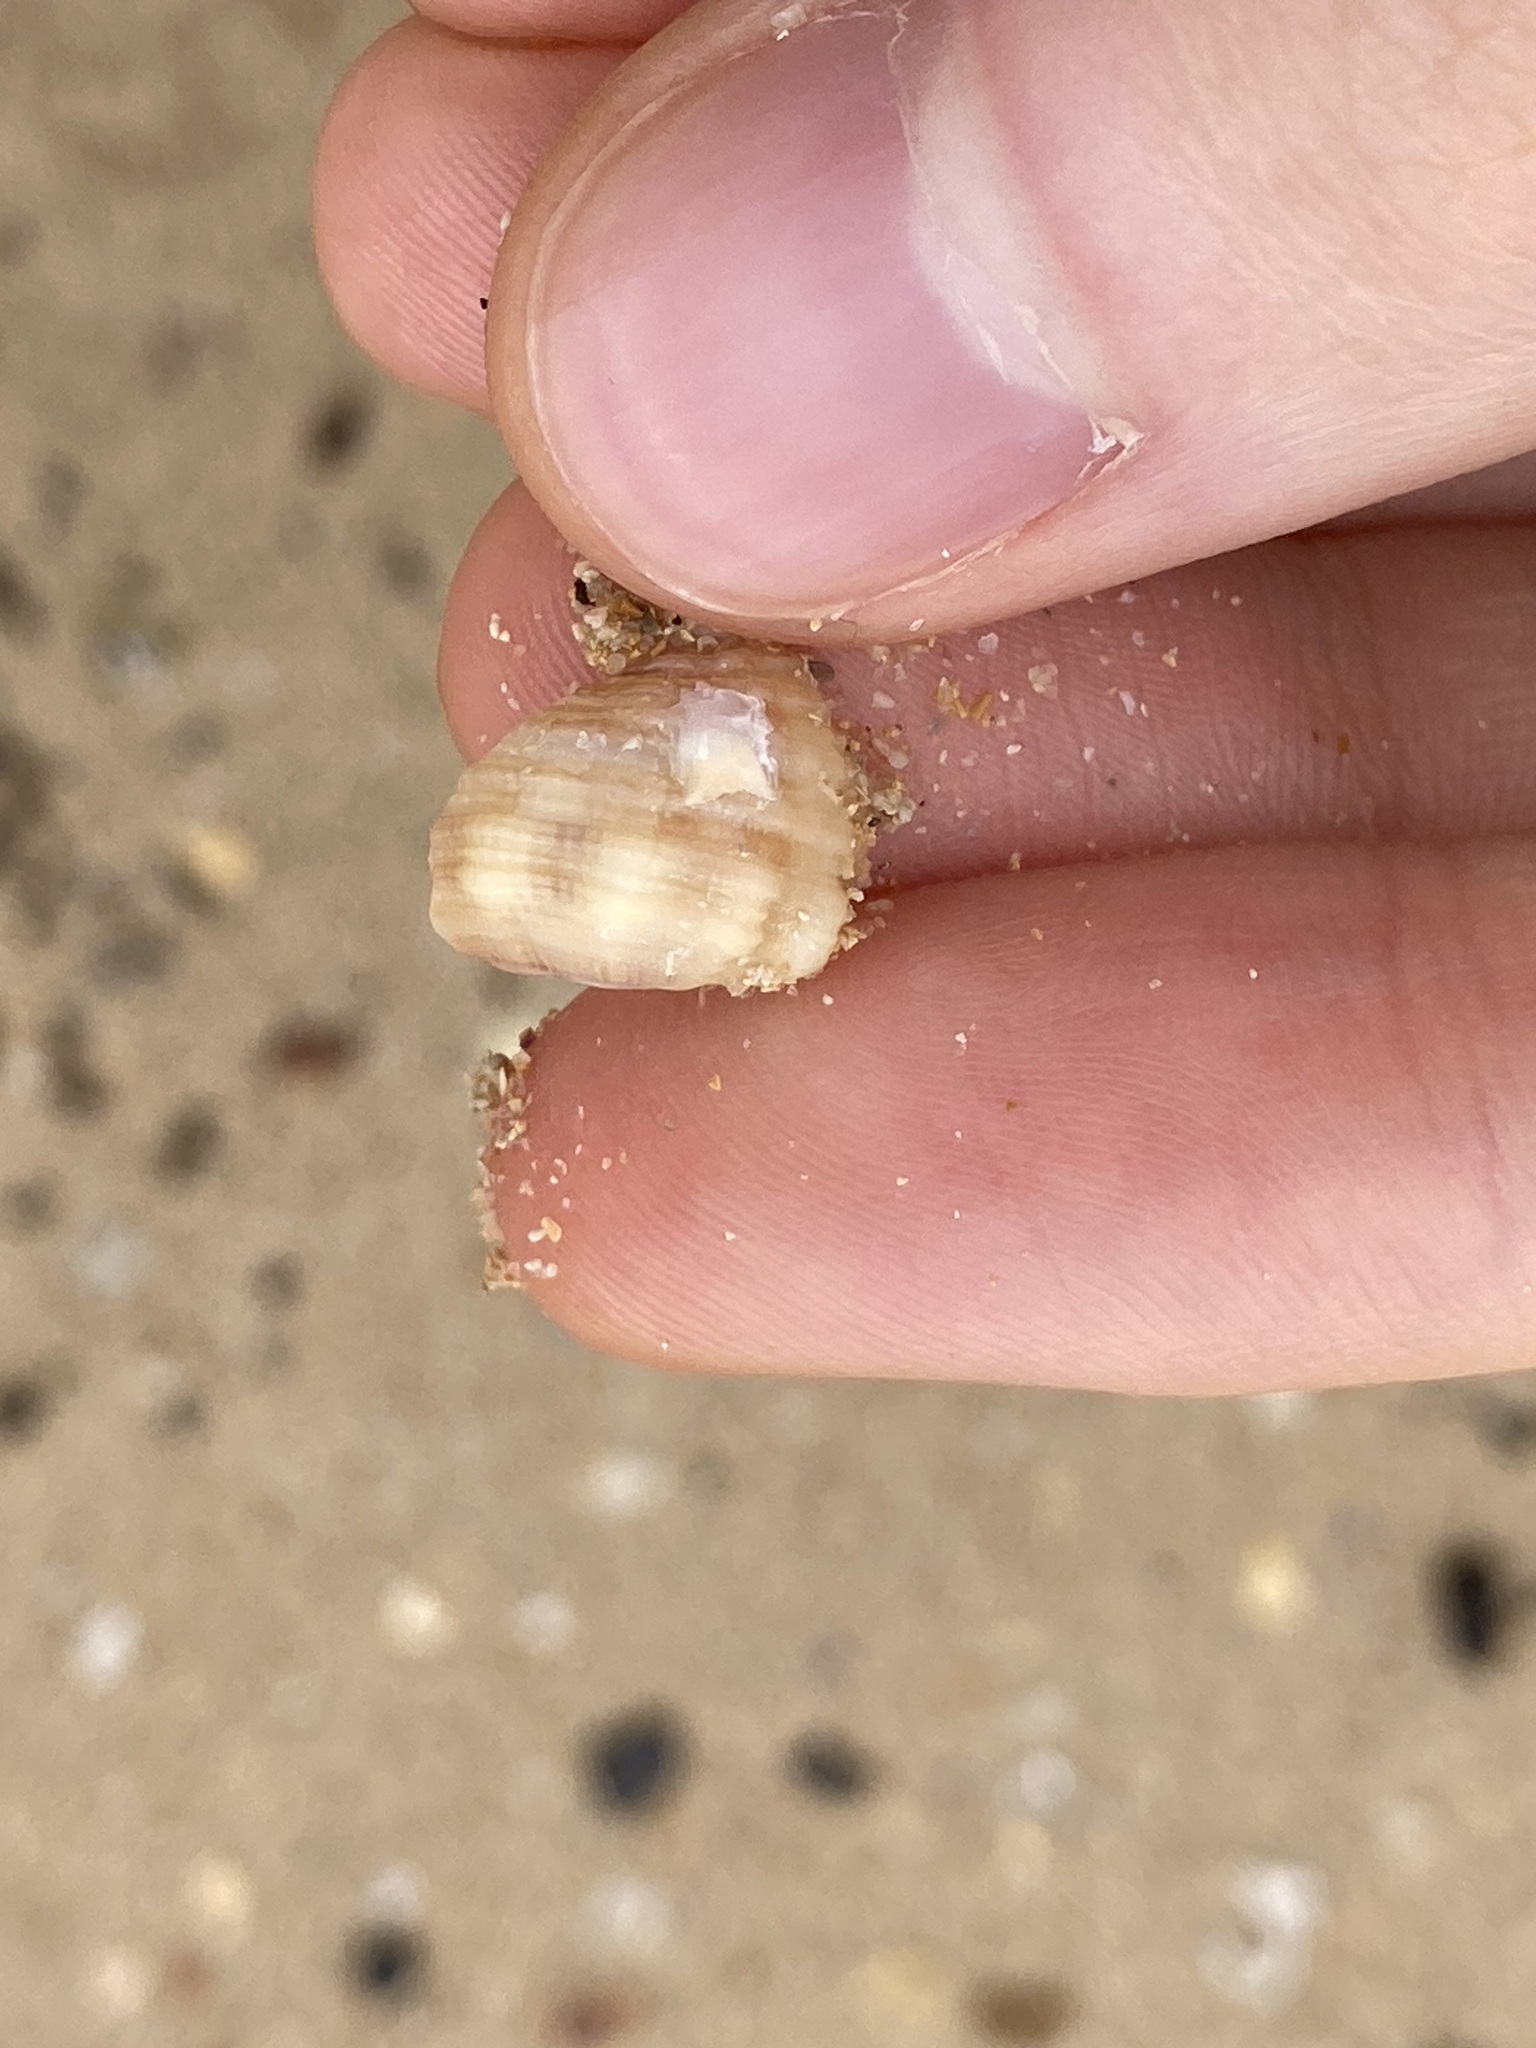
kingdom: Animalia
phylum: Mollusca
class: Gastropoda
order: Littorinimorpha
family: Cymatiidae
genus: Cabestana
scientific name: Cabestana spengleri
